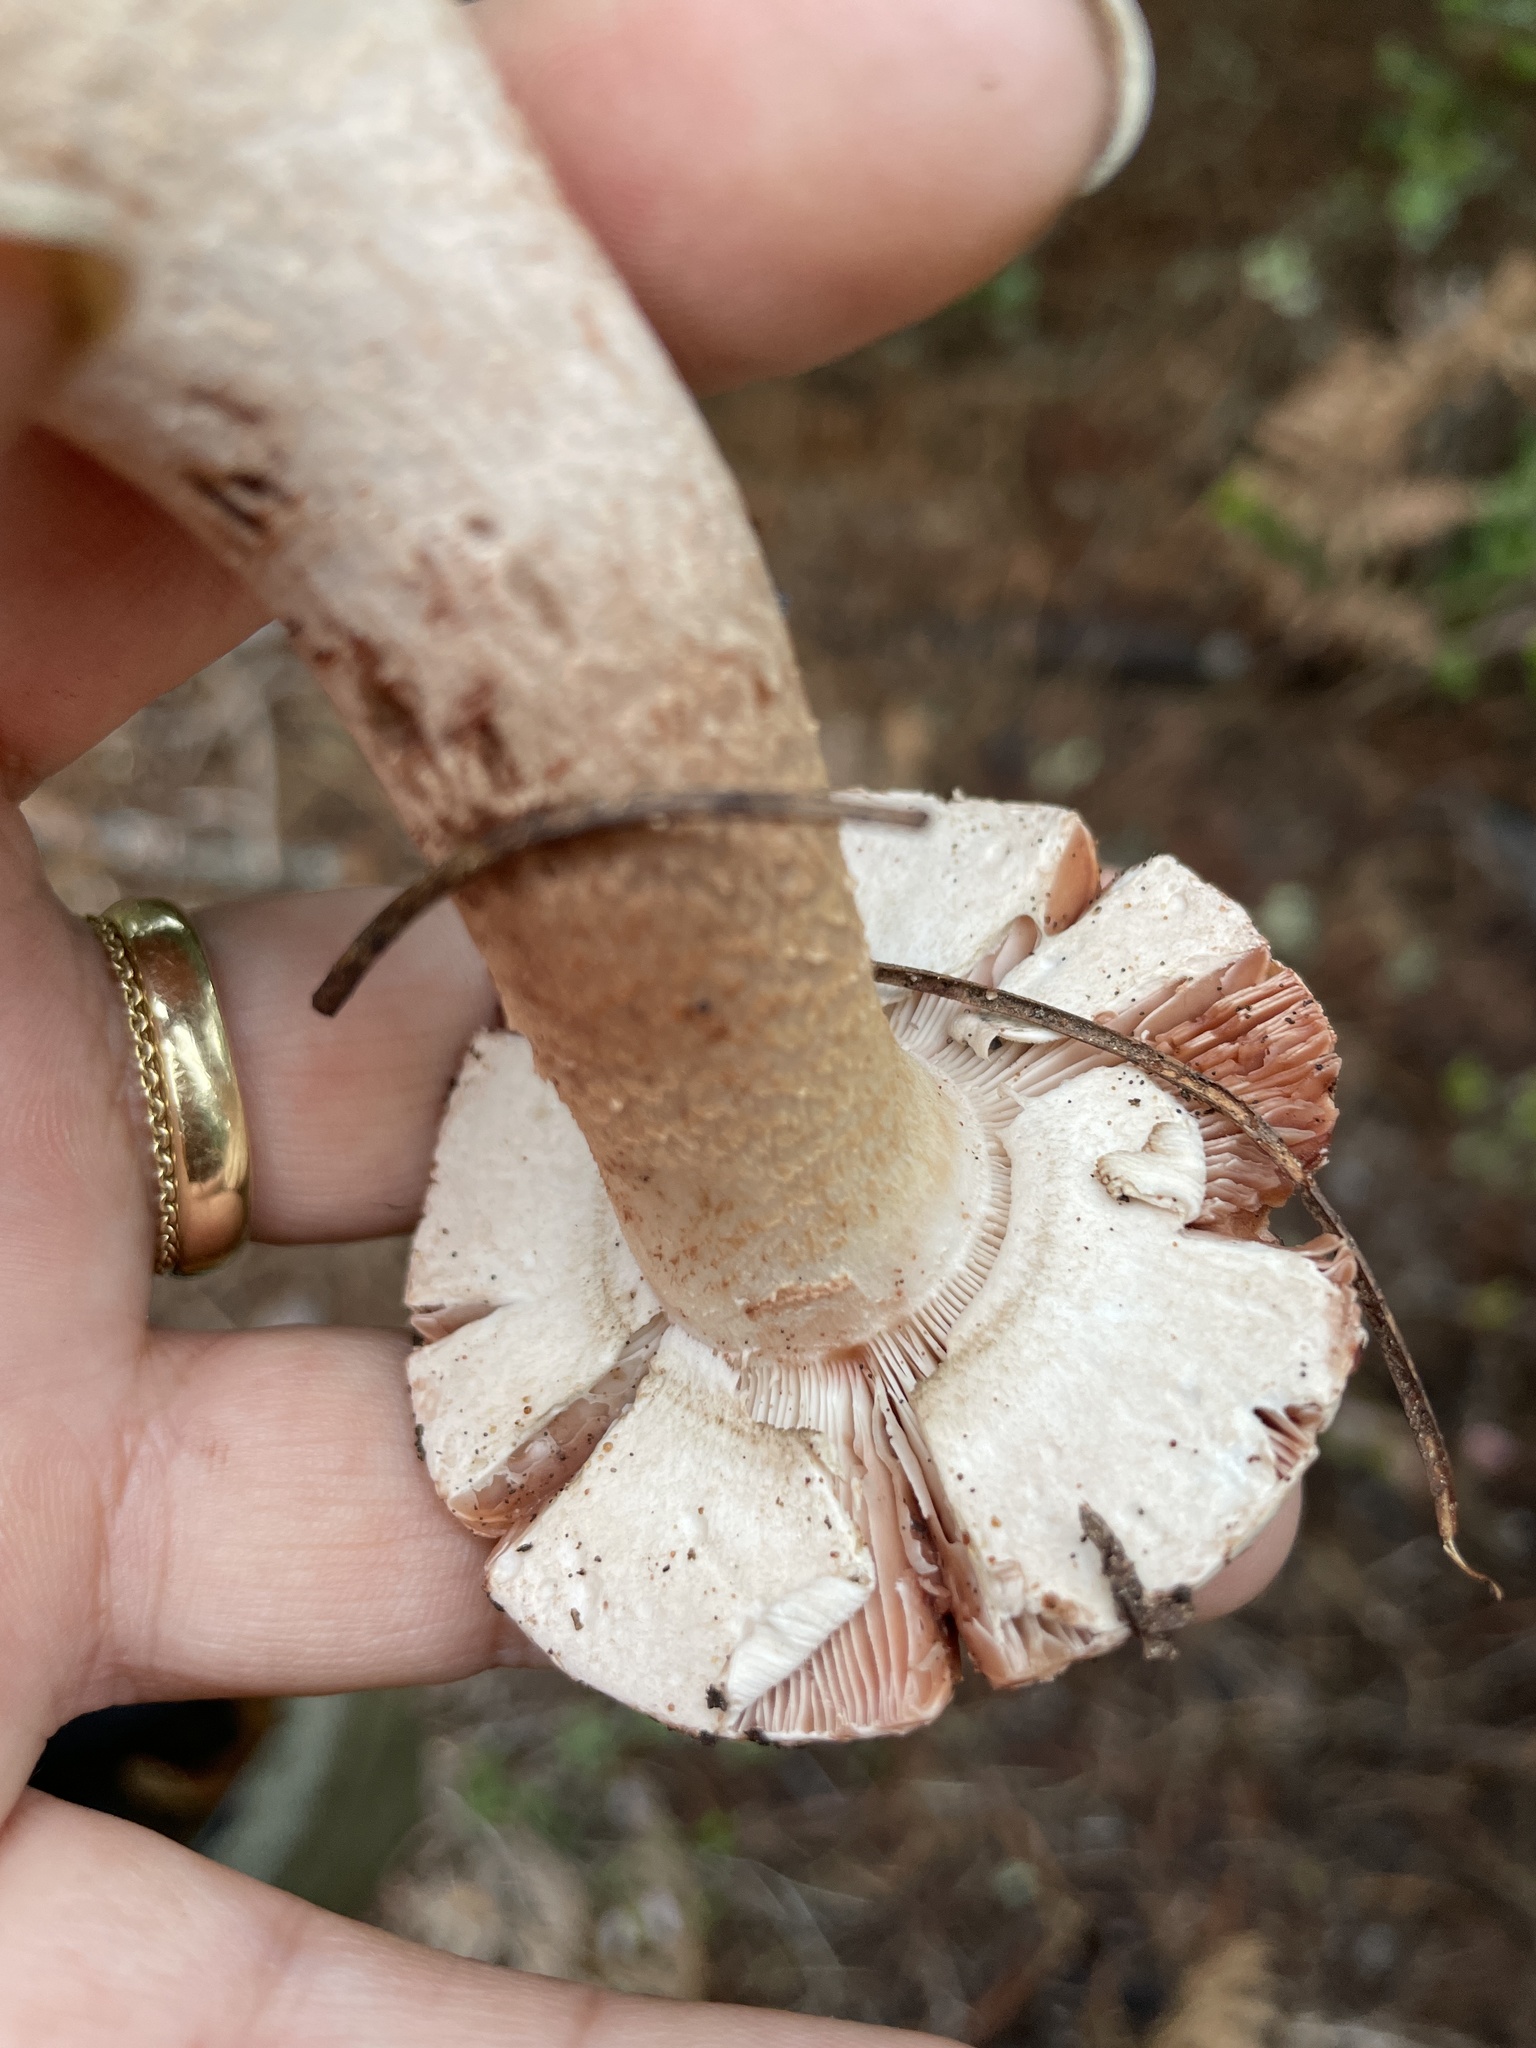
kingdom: Fungi
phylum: Basidiomycota
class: Agaricomycetes
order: Agaricales
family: Amanitaceae
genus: Amanita
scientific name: Amanita novinupta
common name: Blushing bride
